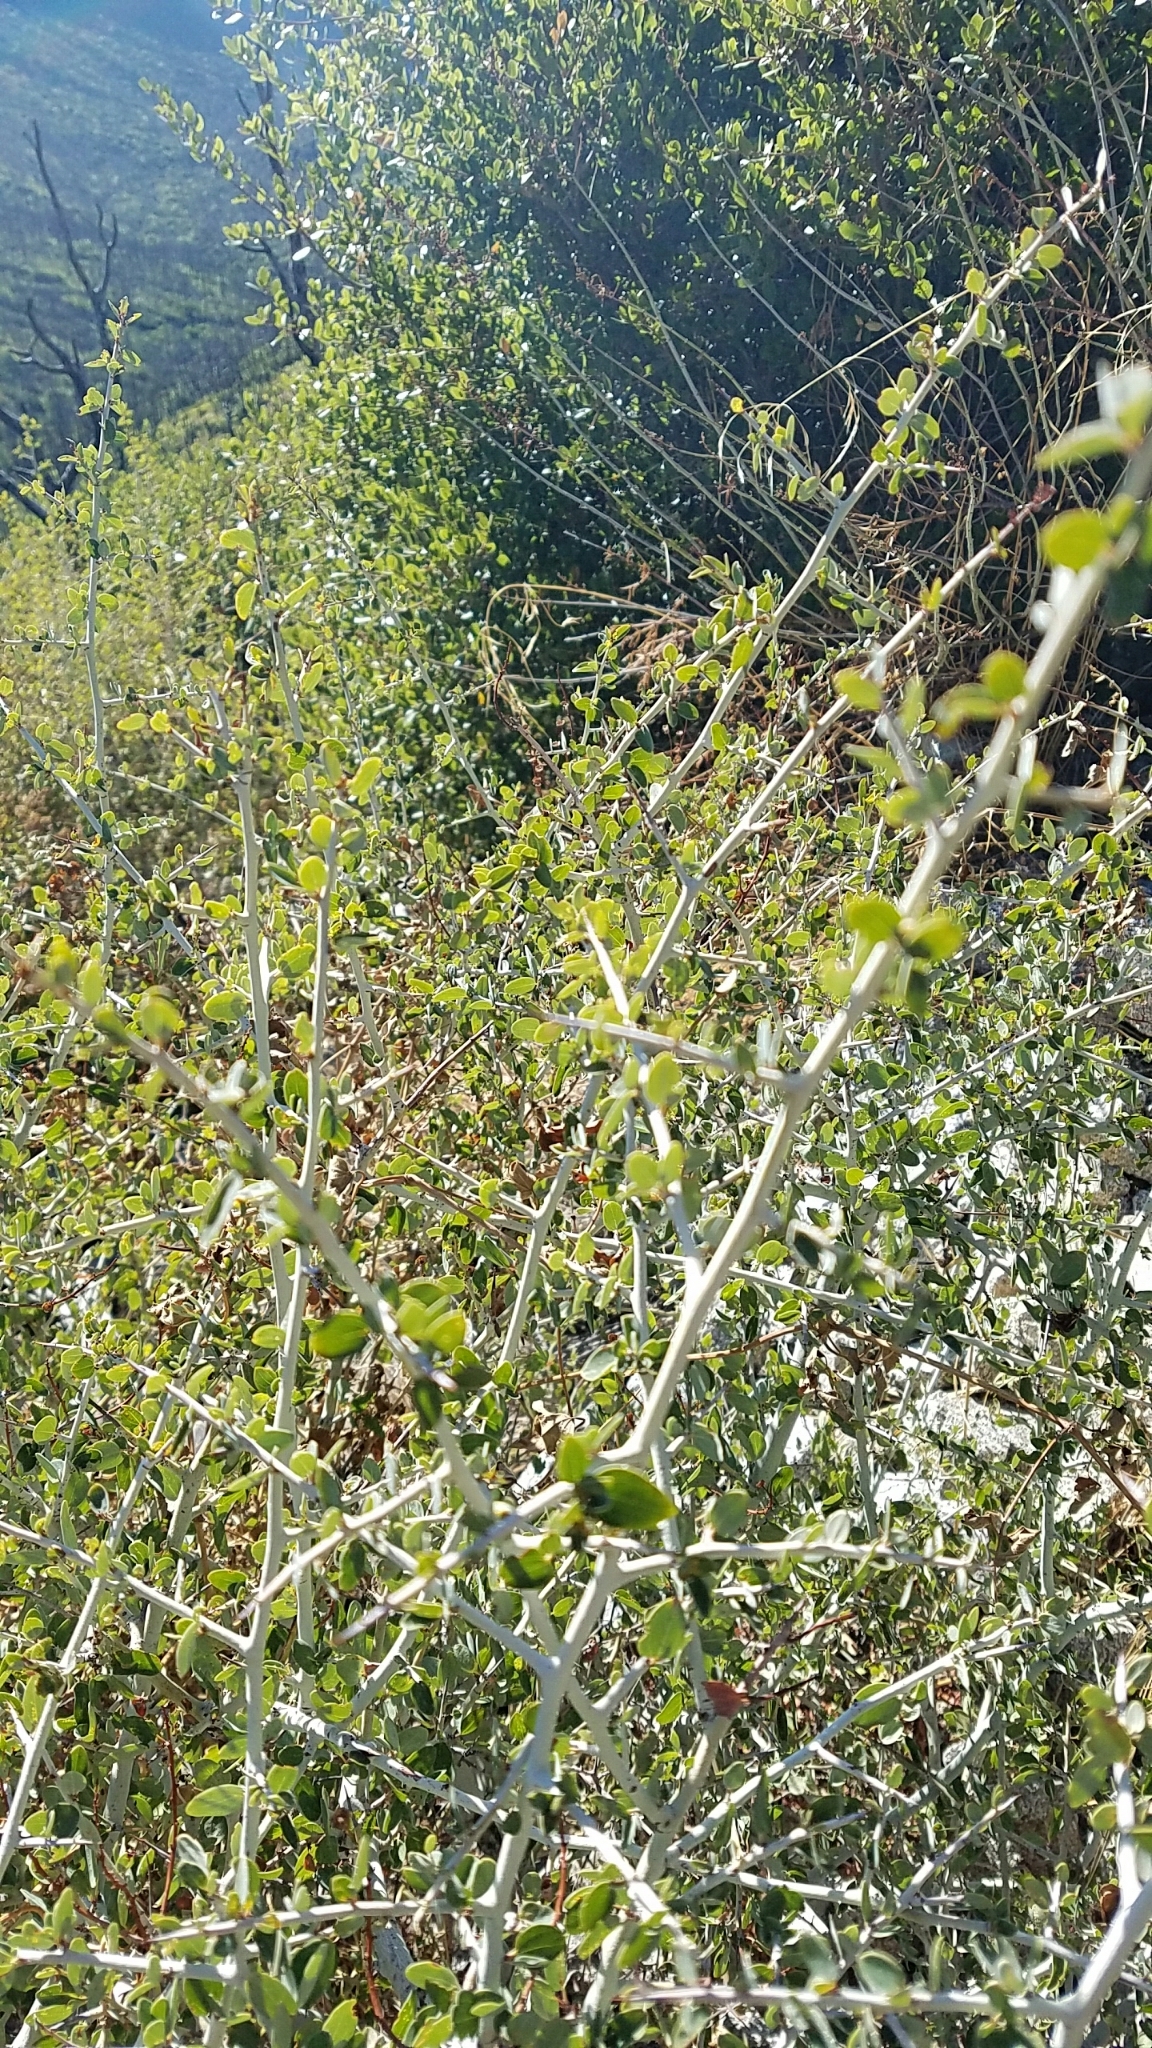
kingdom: Plantae
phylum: Tracheophyta
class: Magnoliopsida
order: Rosales
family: Rhamnaceae
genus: Ceanothus
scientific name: Ceanothus leucodermis
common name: Chaparral whitethorn
